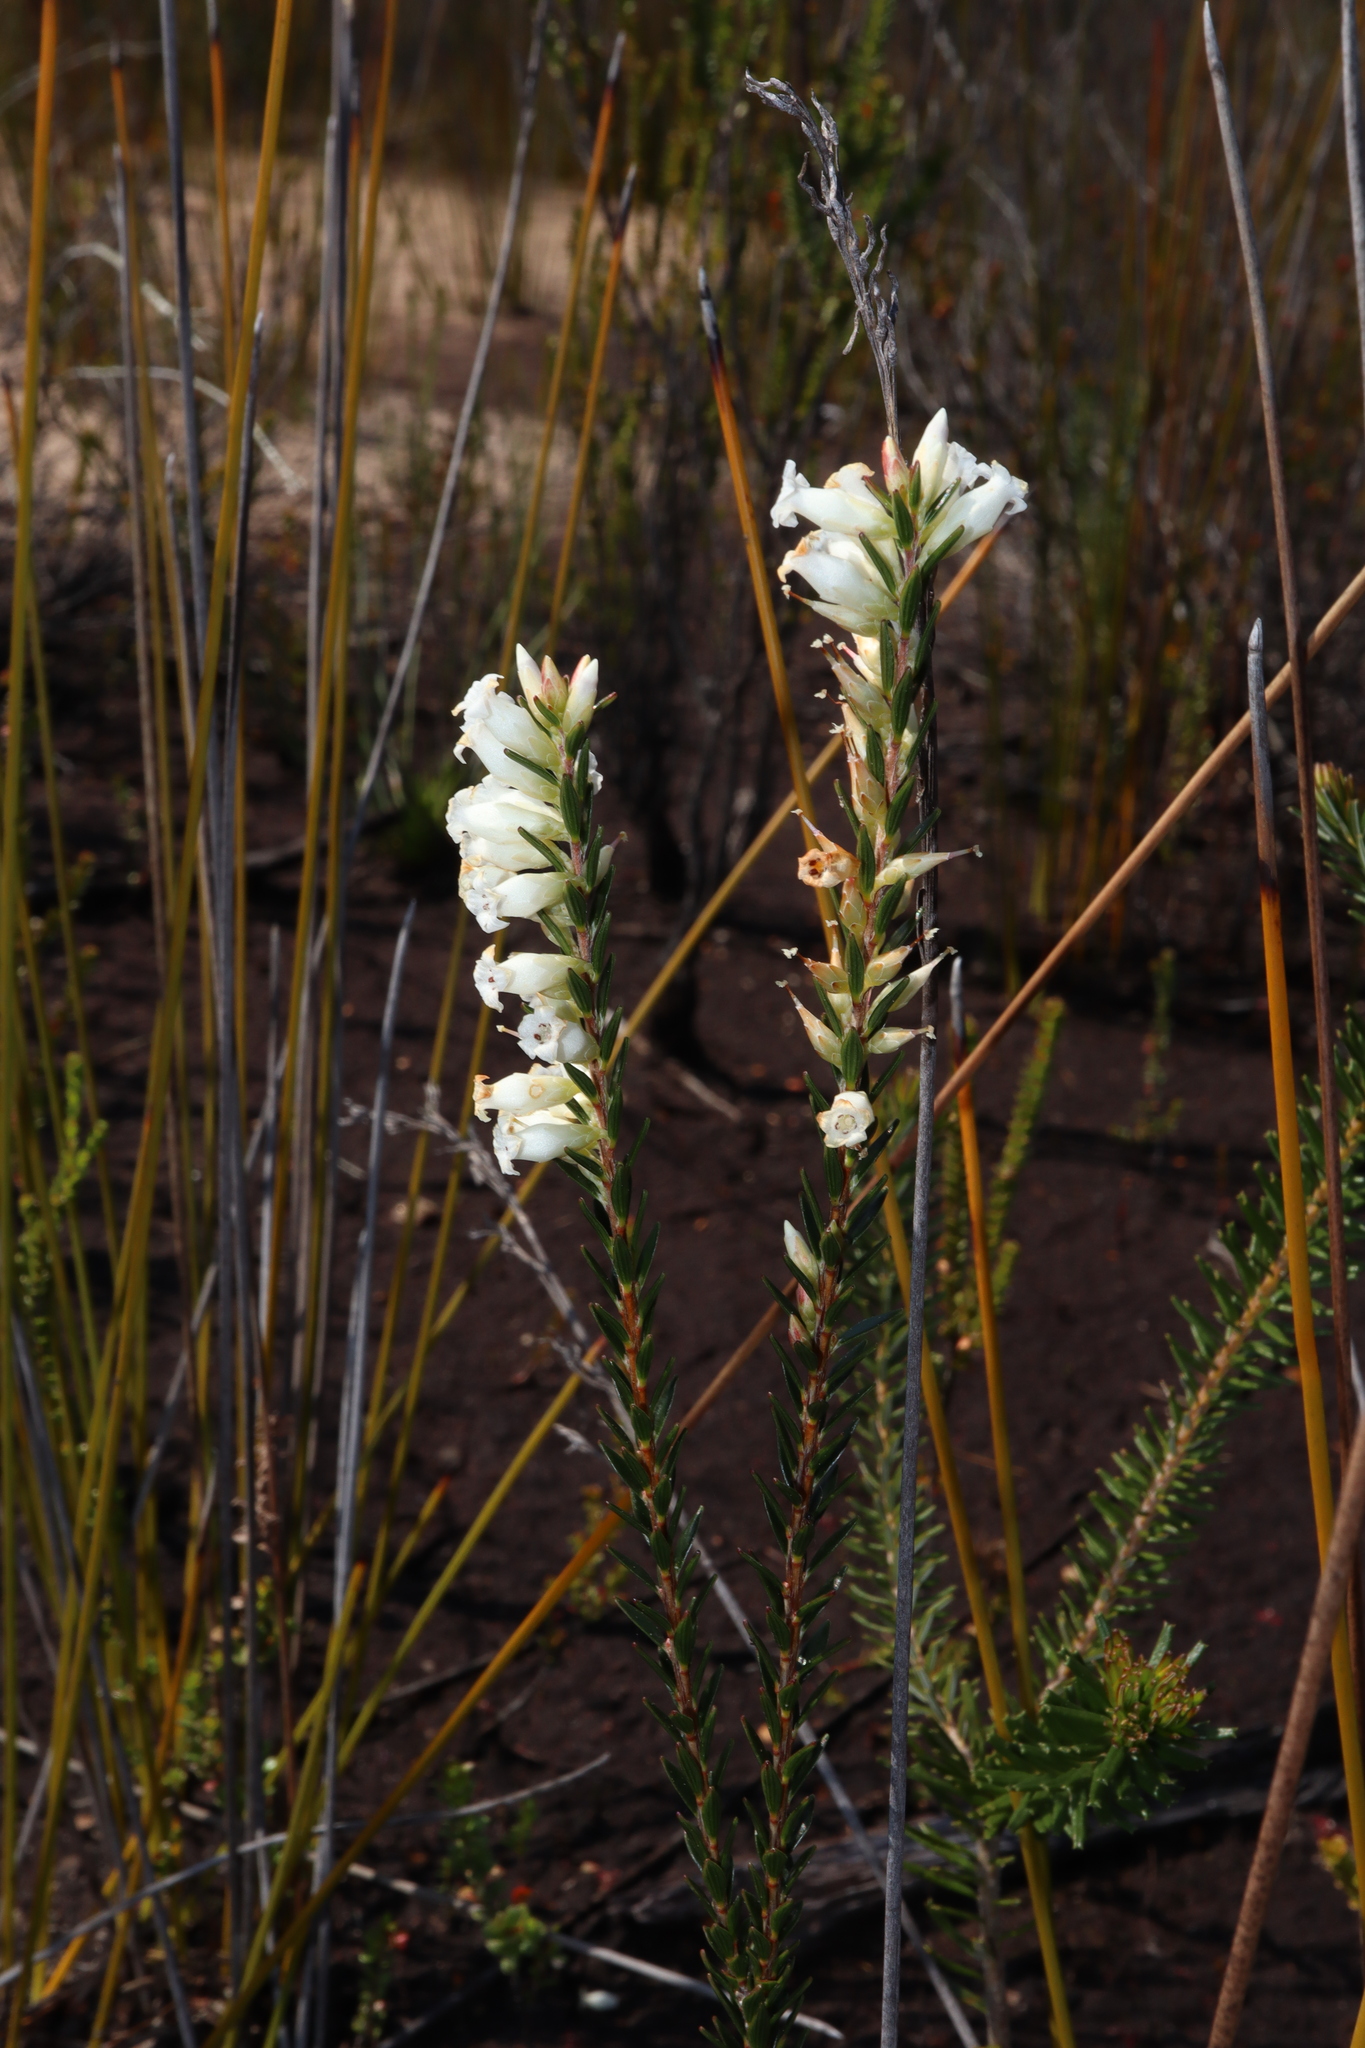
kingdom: Plantae
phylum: Tracheophyta
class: Magnoliopsida
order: Ericales
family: Ericaceae
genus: Epacris
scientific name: Epacris obtusifolia
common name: Blunt-leaf australian-heath
